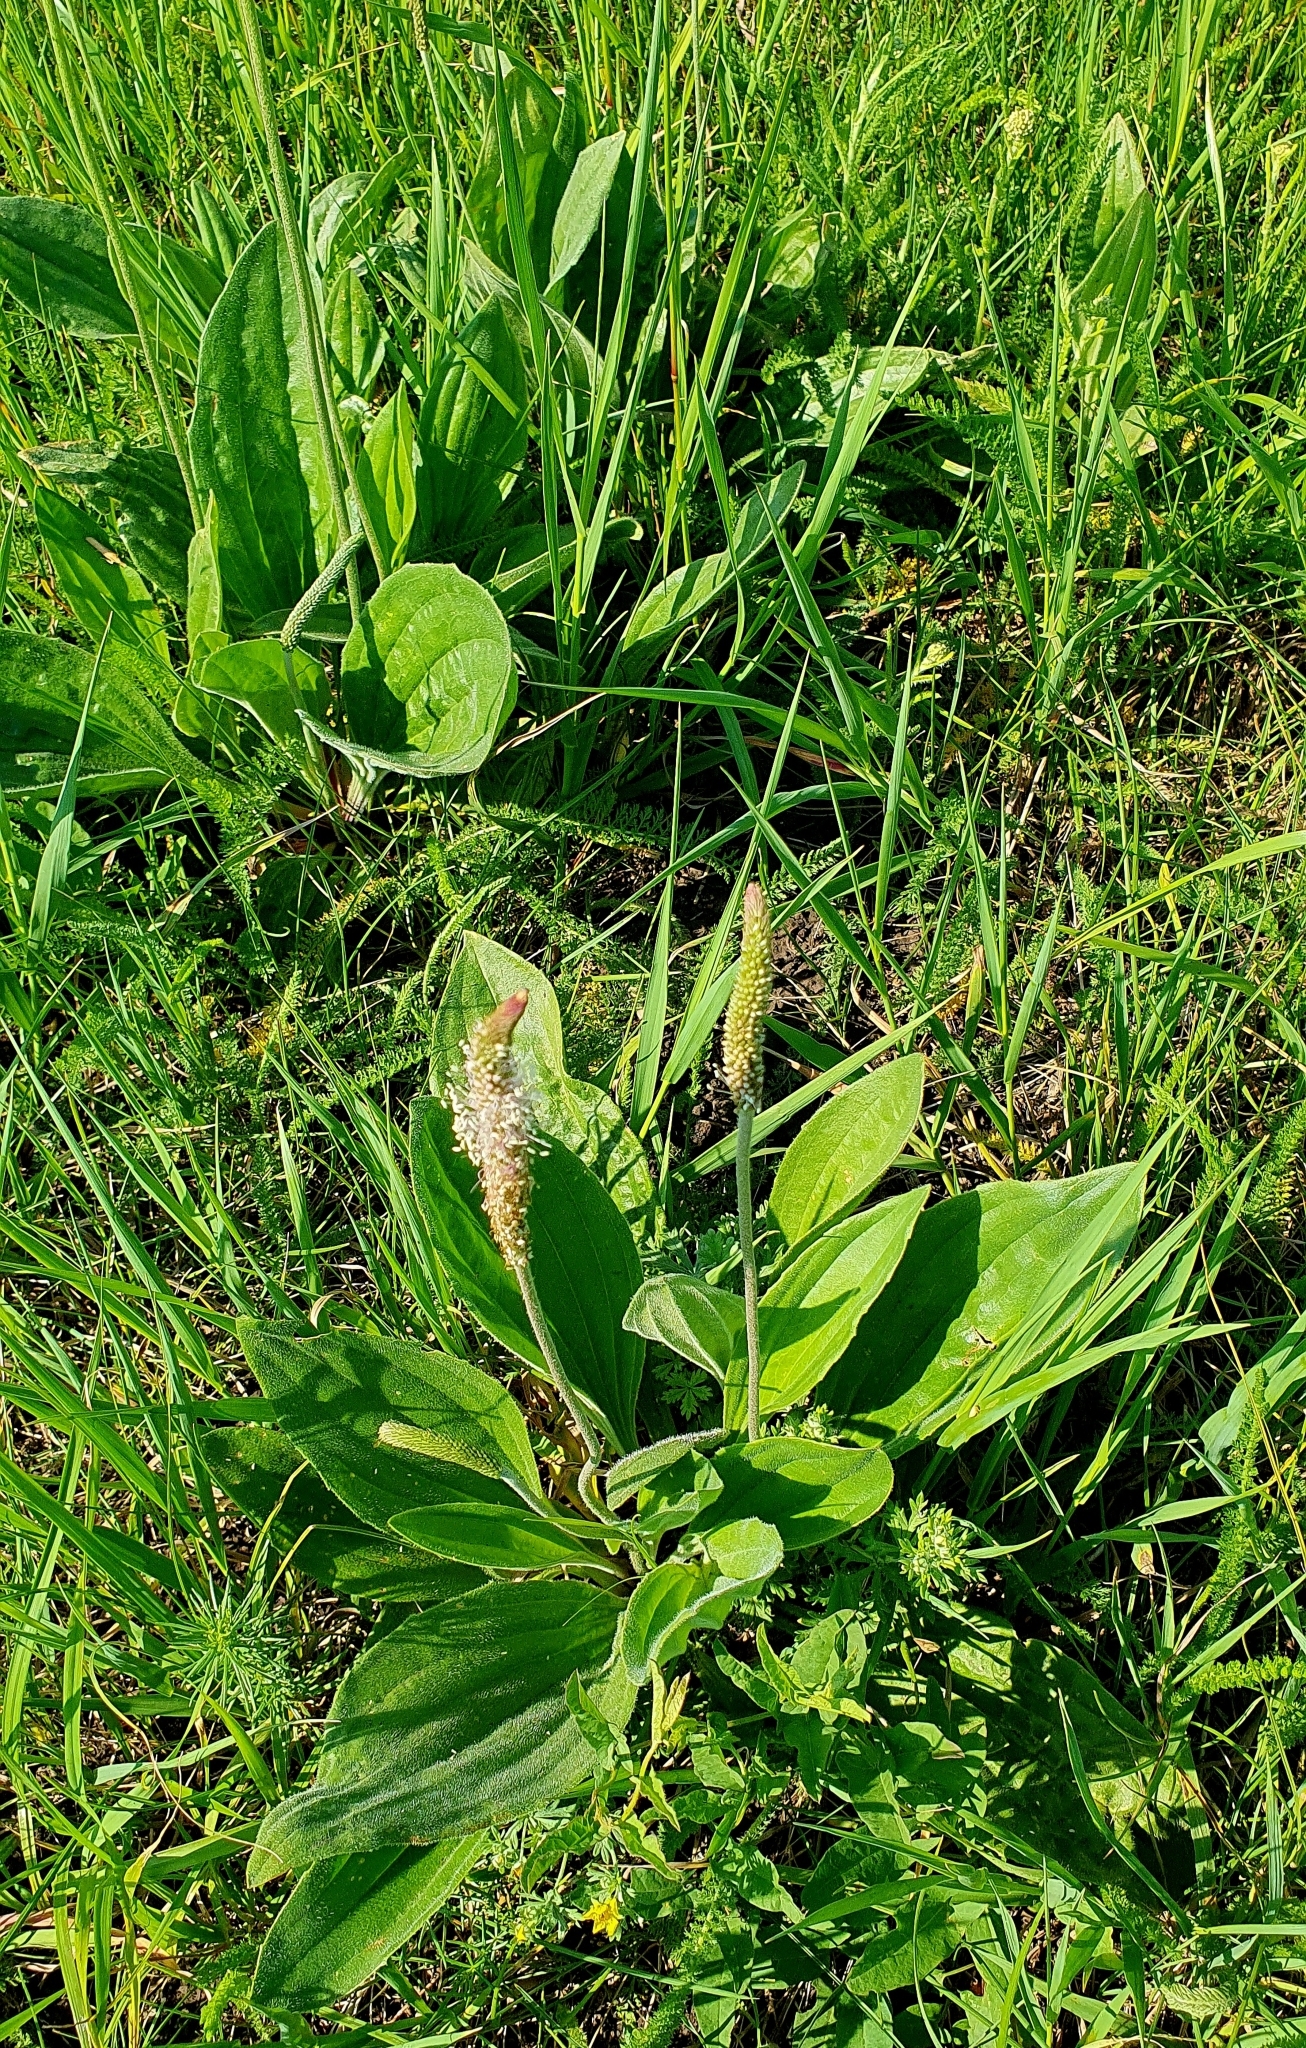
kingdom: Plantae
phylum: Tracheophyta
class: Magnoliopsida
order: Lamiales
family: Plantaginaceae
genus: Plantago
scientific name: Plantago urvillei
